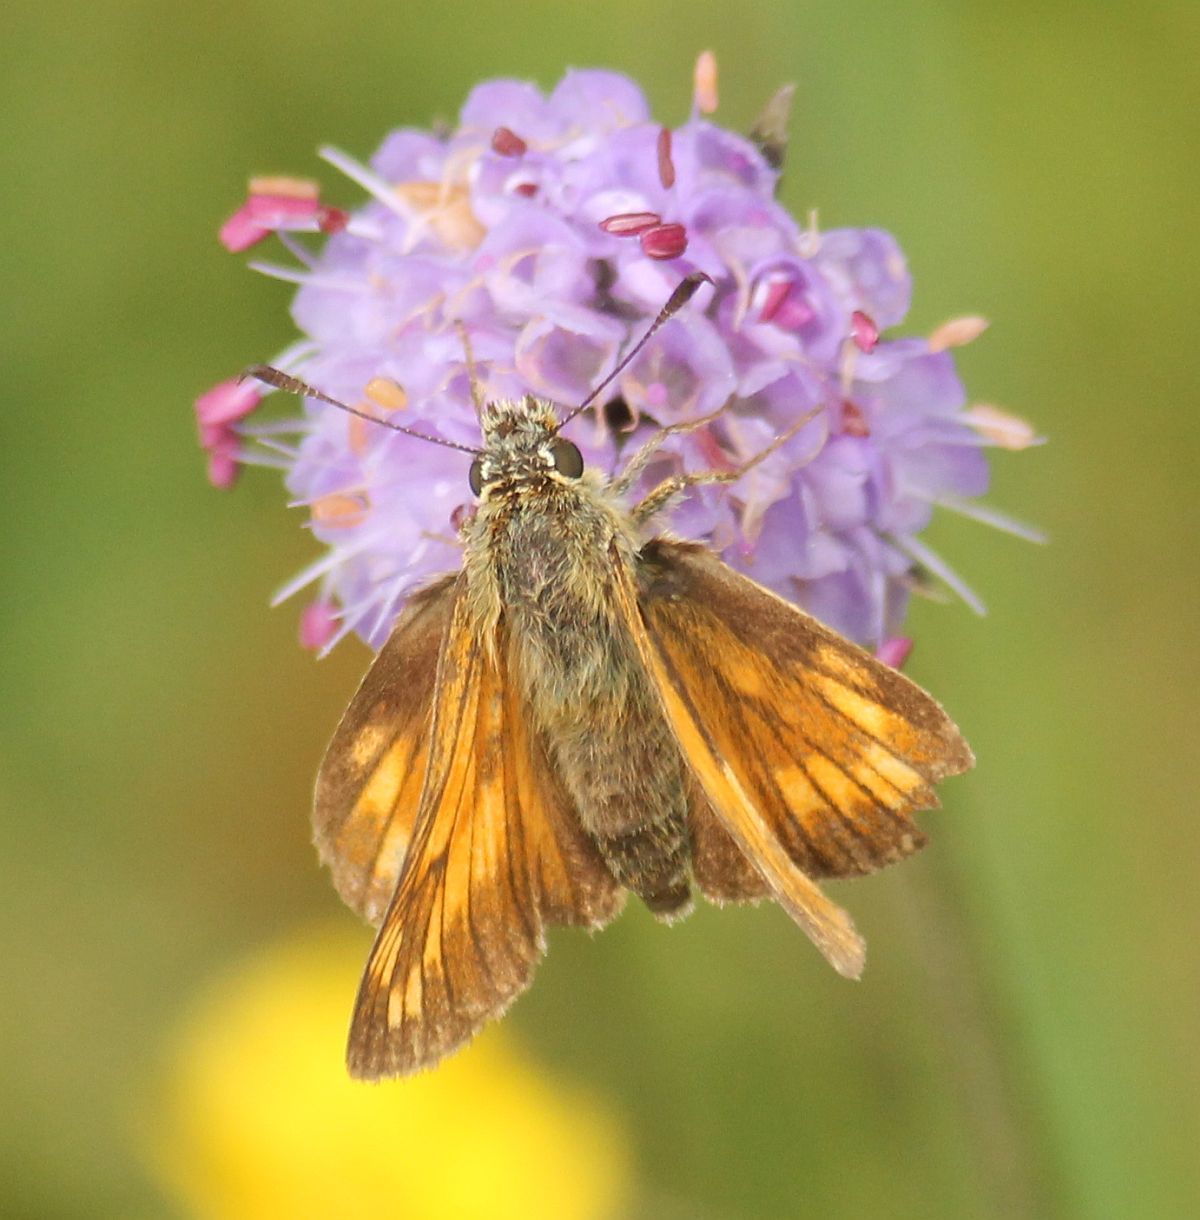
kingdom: Animalia
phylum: Arthropoda
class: Insecta
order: Lepidoptera
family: Hesperiidae
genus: Ochlodes
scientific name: Ochlodes venata
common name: Large skipper
